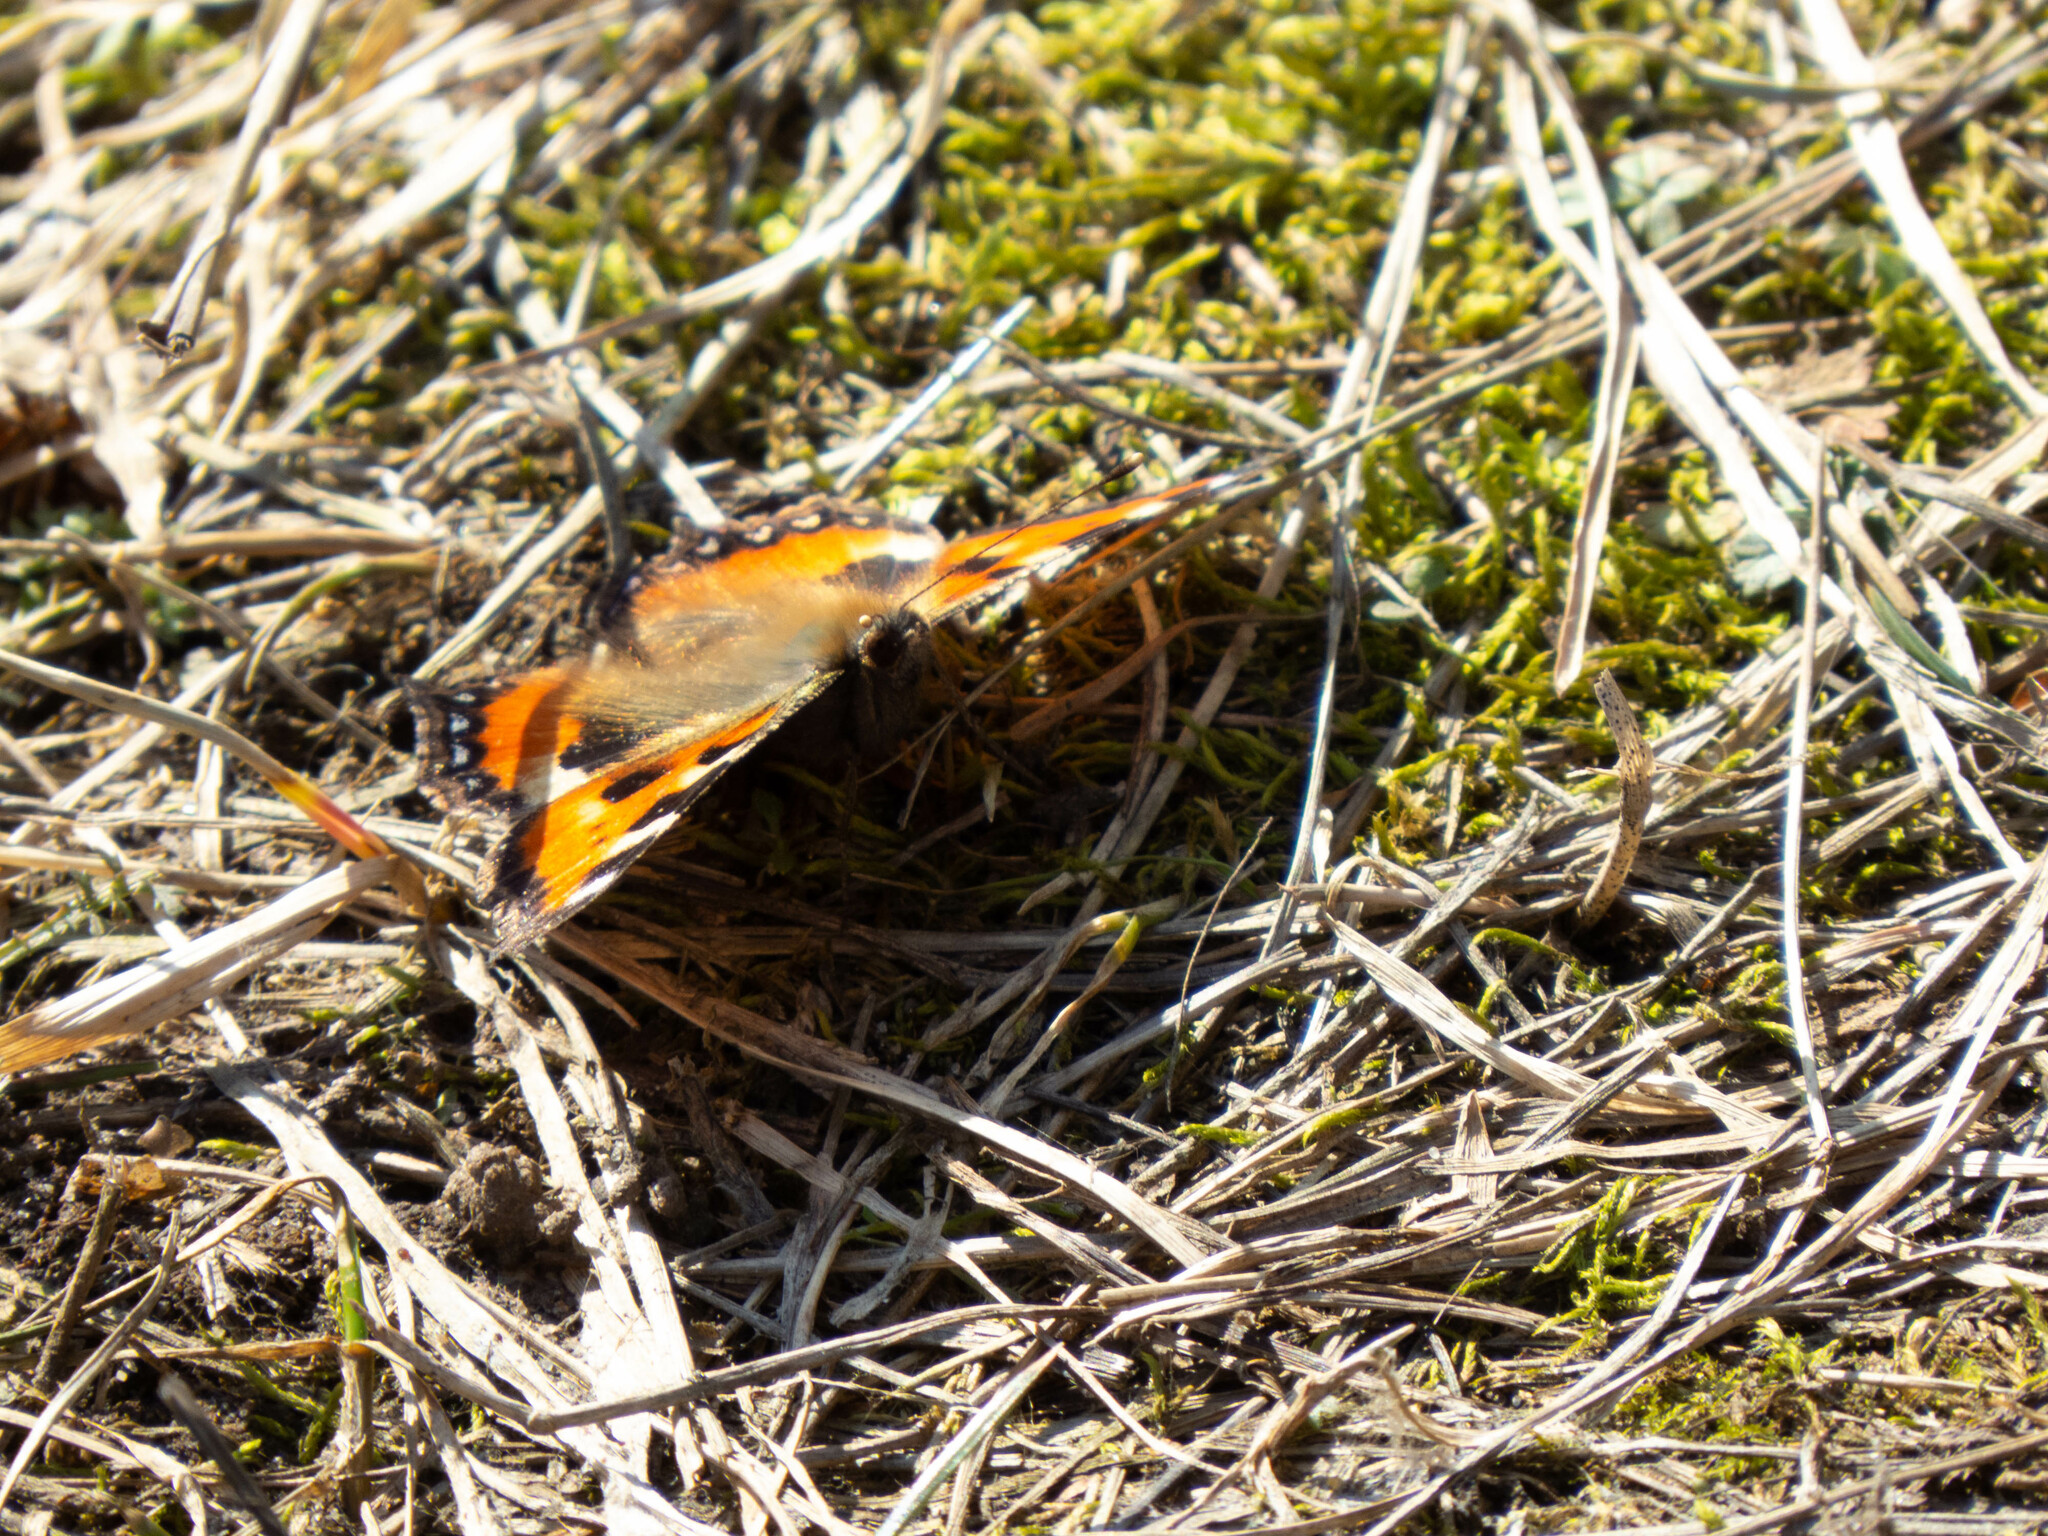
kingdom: Animalia
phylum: Arthropoda
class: Insecta
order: Lepidoptera
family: Nymphalidae
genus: Aglais
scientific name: Aglais urticae
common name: Small tortoiseshell
